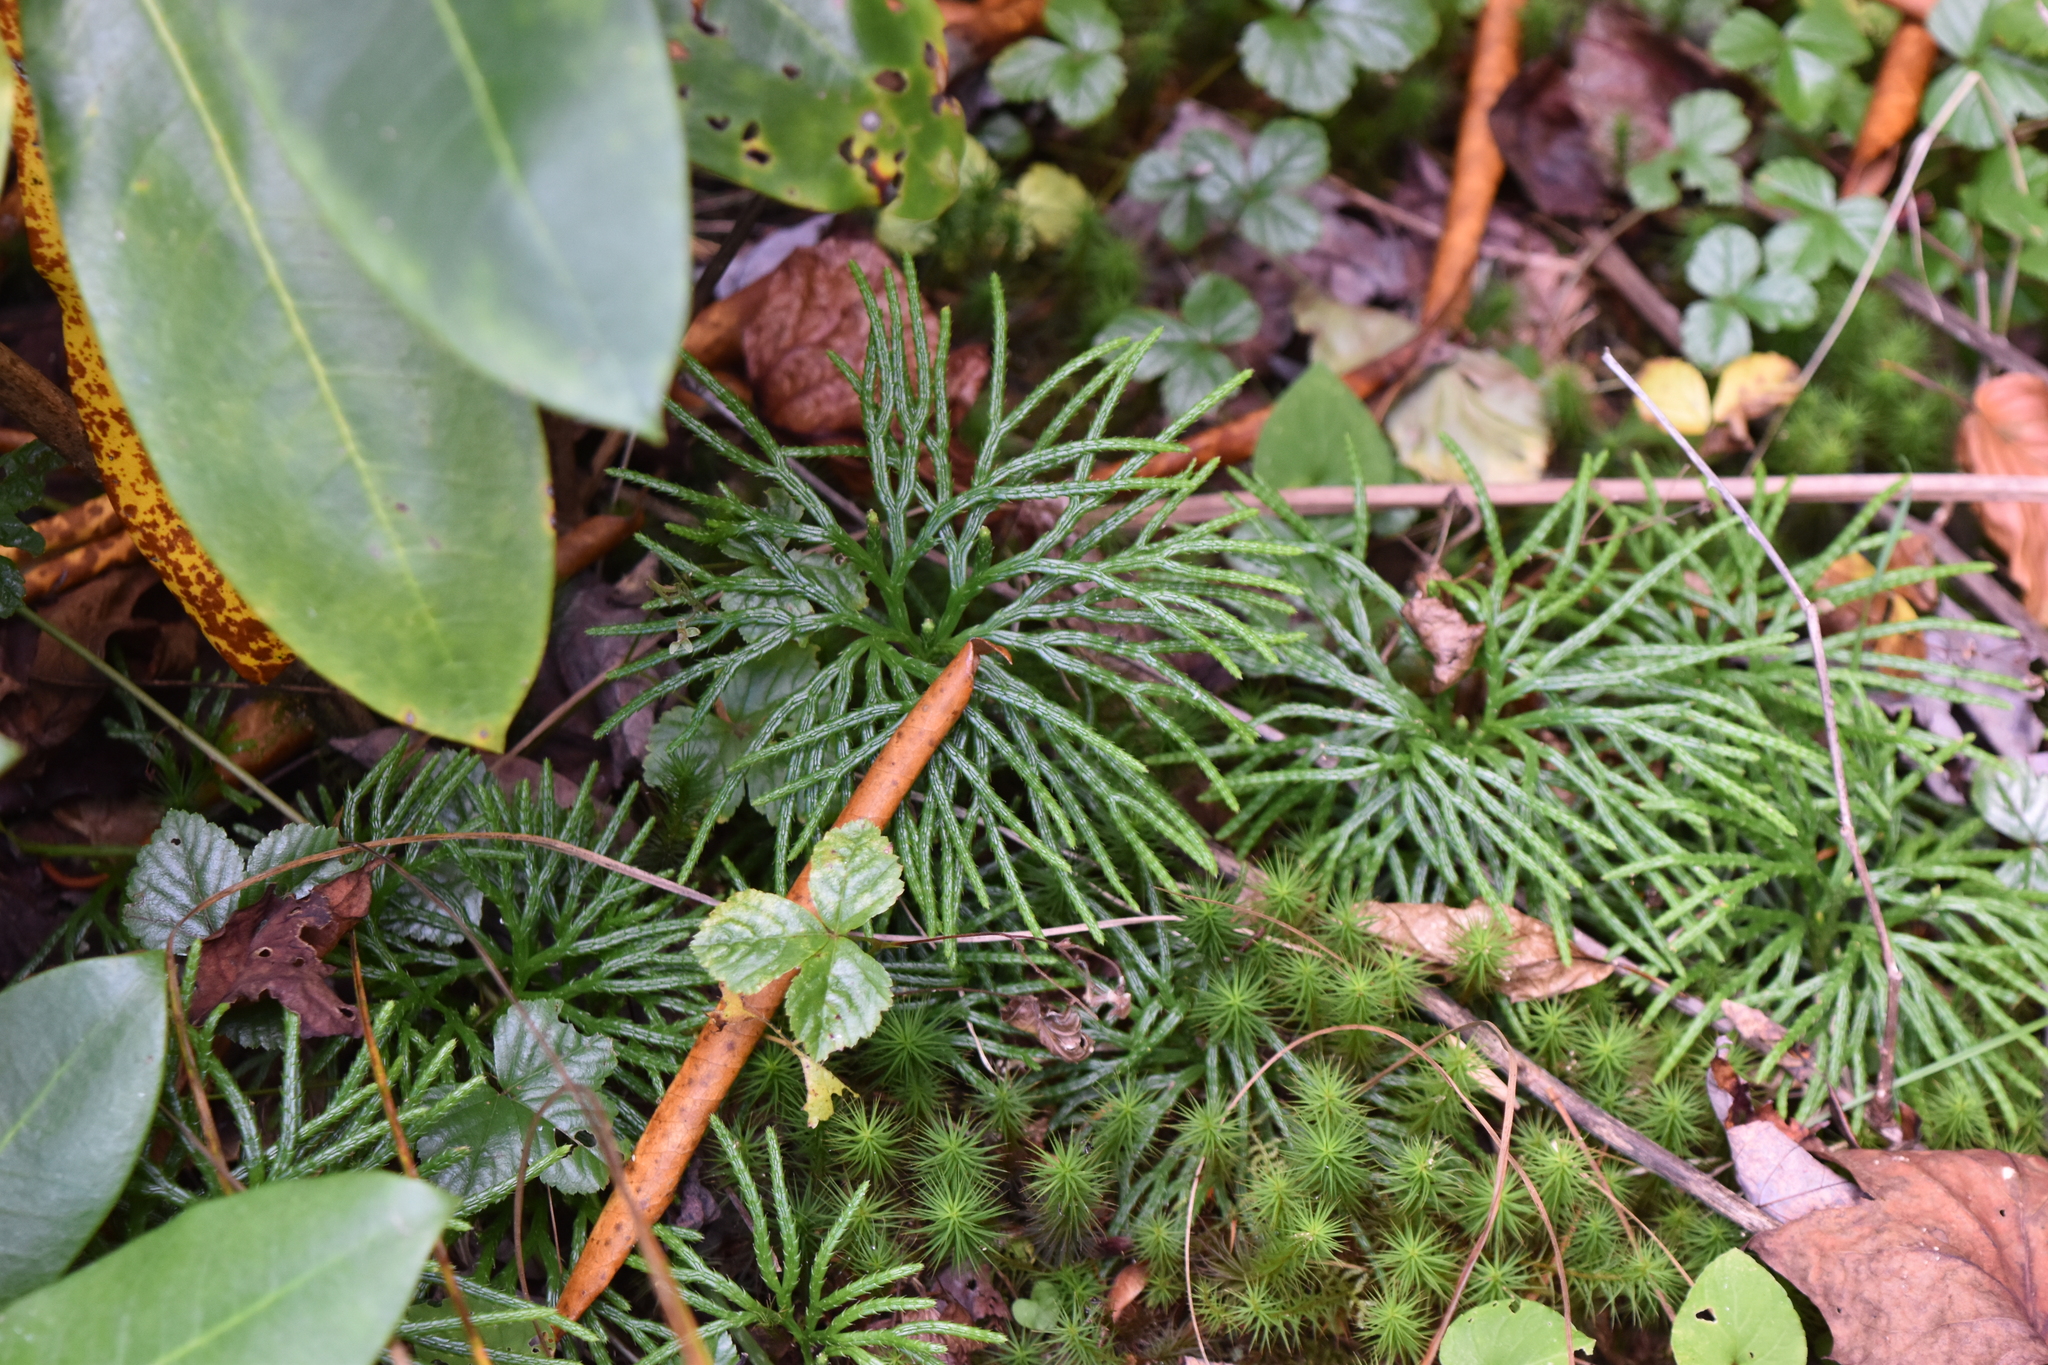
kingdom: Plantae
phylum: Tracheophyta
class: Lycopodiopsida
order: Lycopodiales
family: Lycopodiaceae
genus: Diphasiastrum
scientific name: Diphasiastrum digitatum
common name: Southern running-pine
